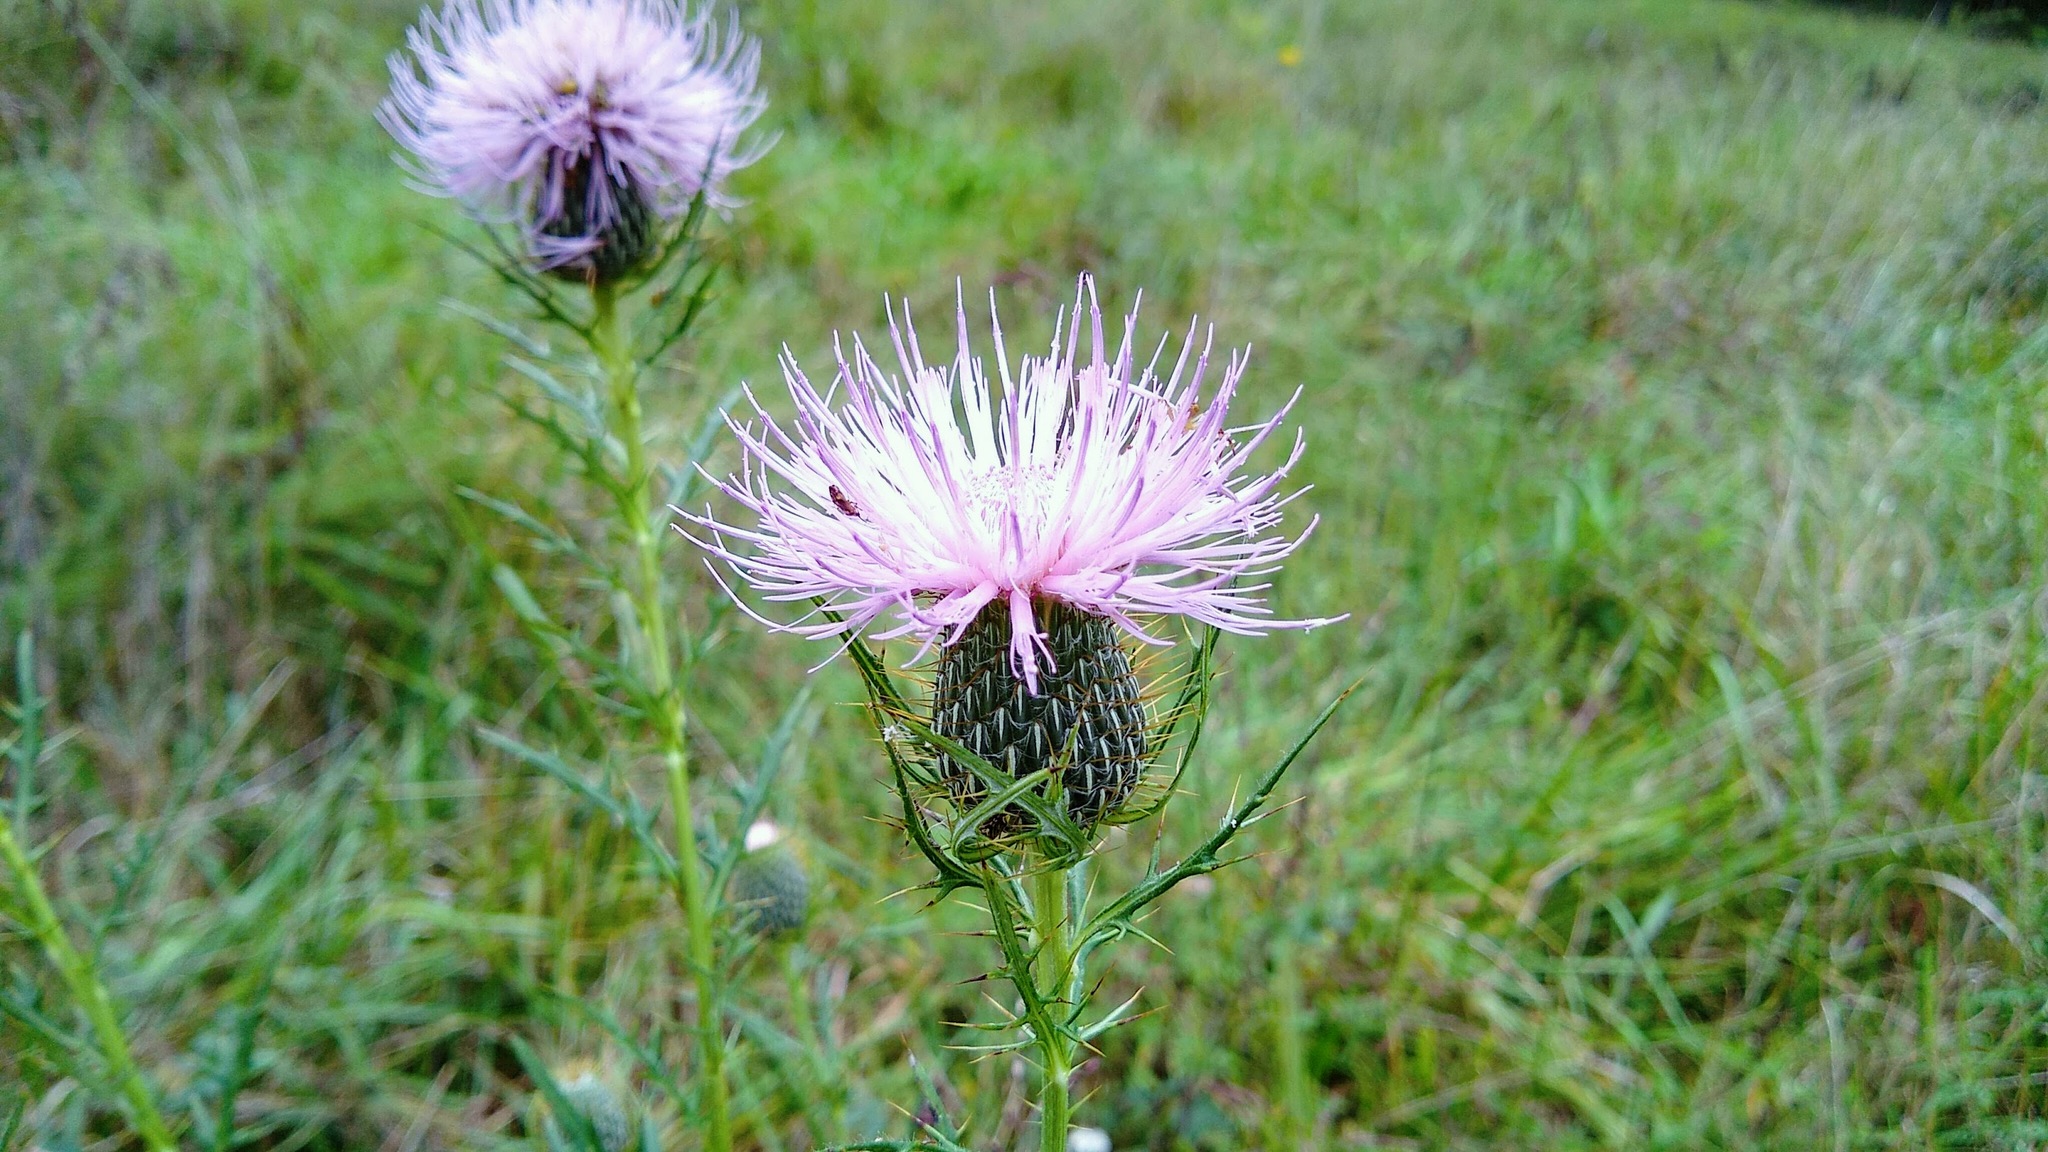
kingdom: Plantae
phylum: Tracheophyta
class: Magnoliopsida
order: Asterales
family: Asteraceae
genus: Cirsium
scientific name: Cirsium discolor
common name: Field thistle
